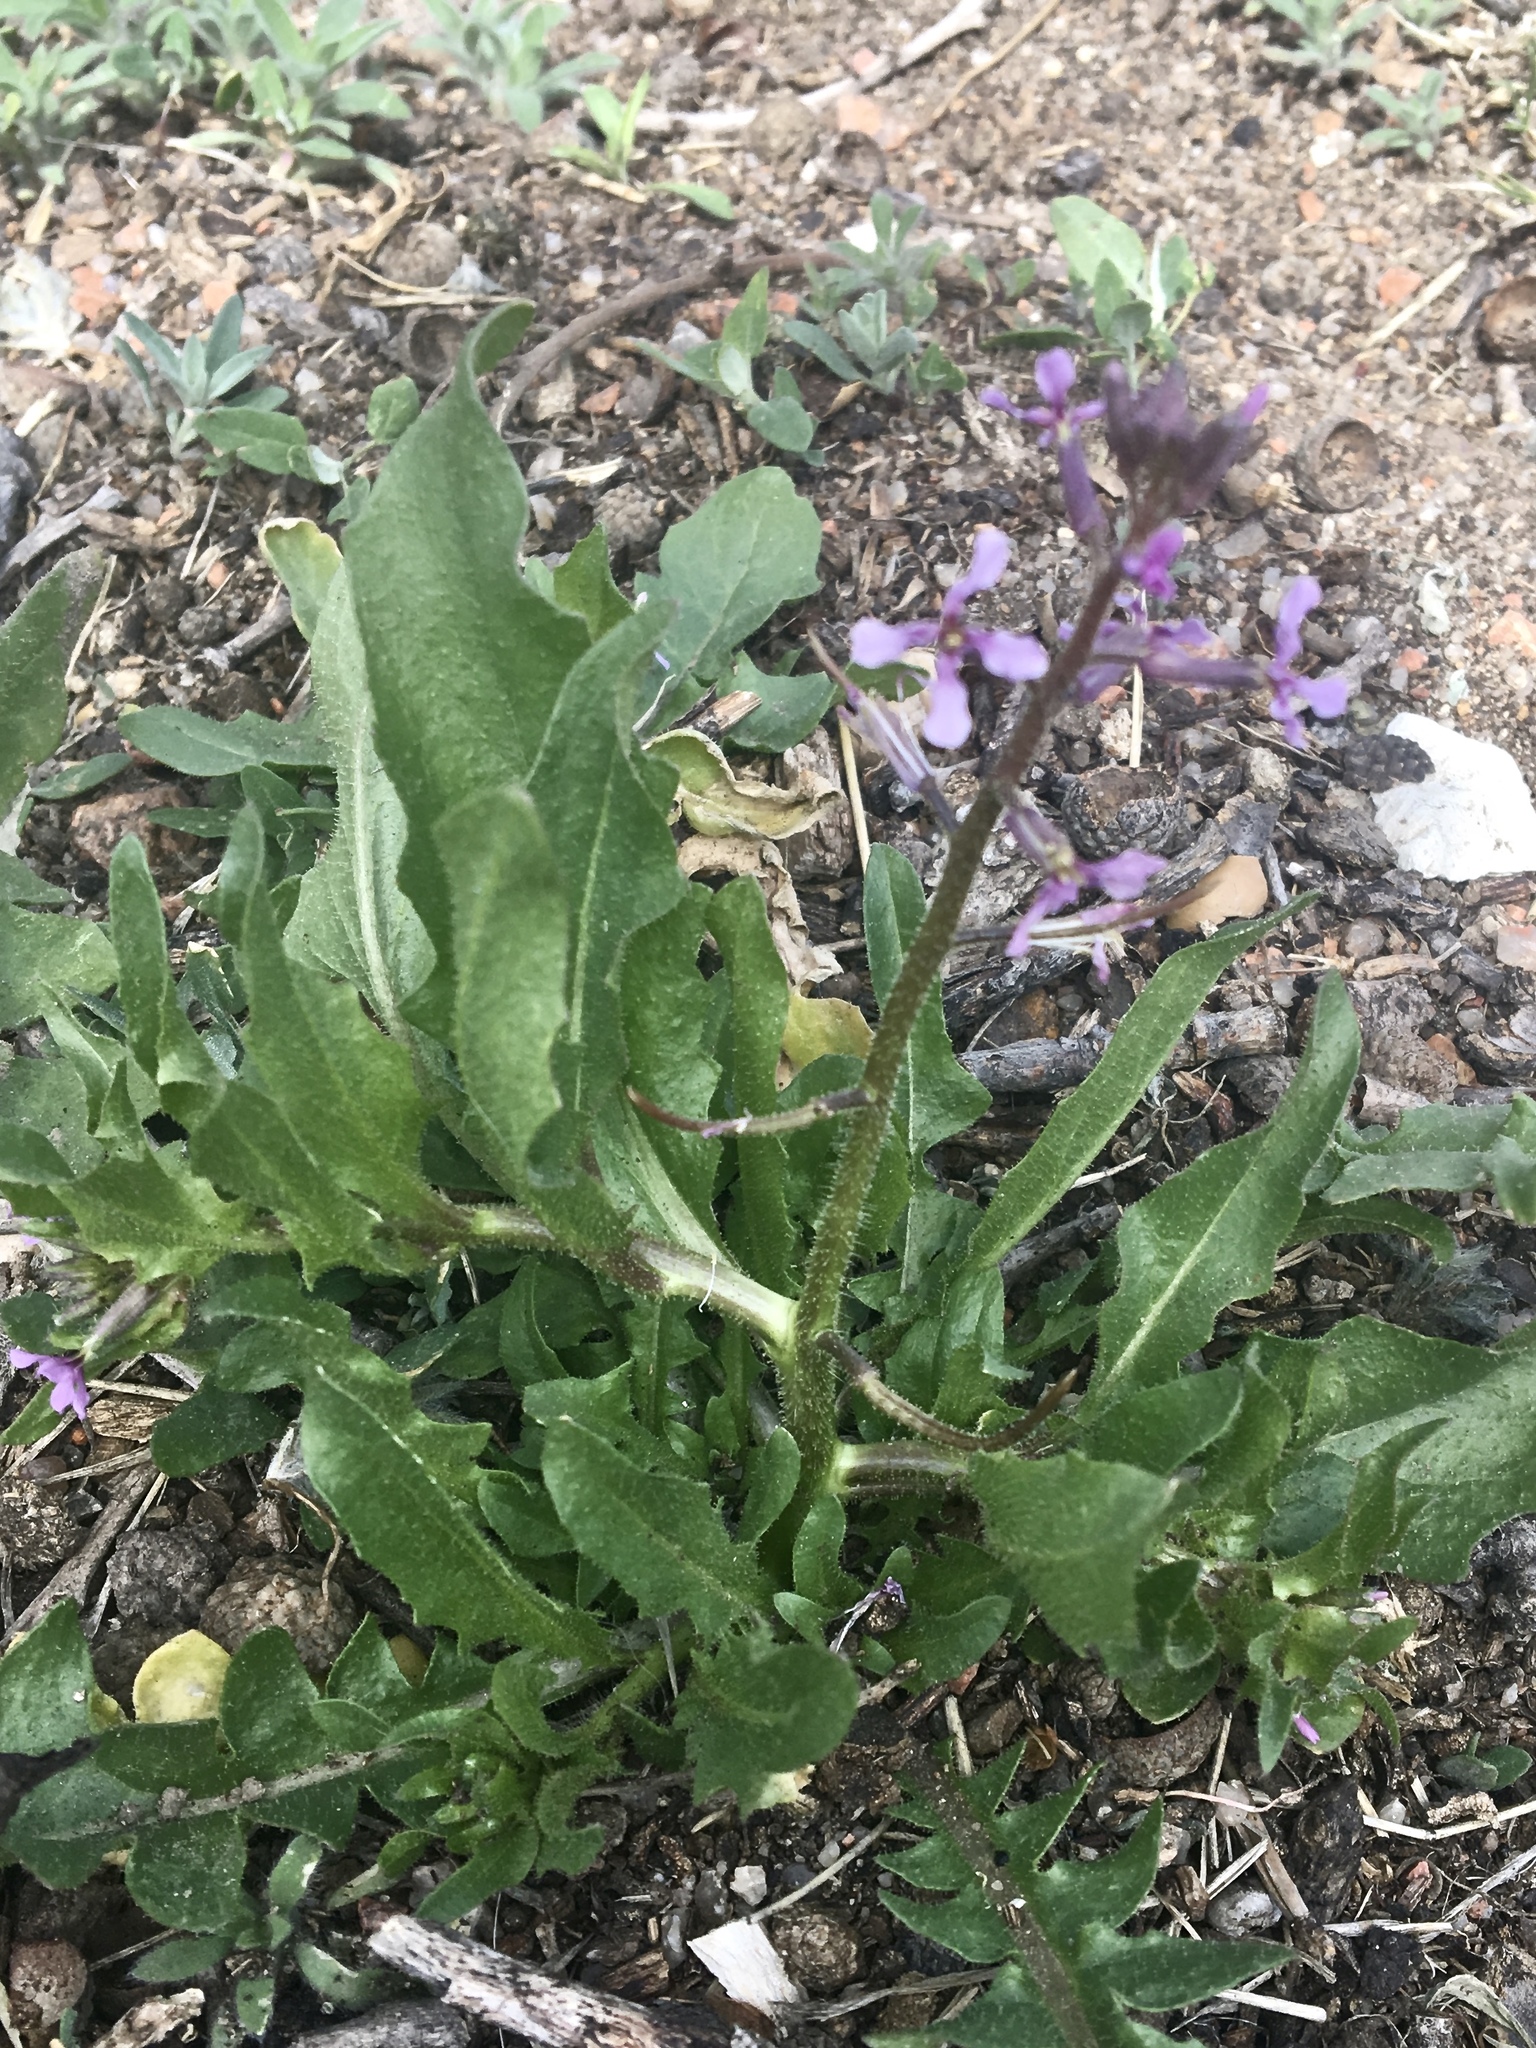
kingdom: Plantae
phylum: Tracheophyta
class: Magnoliopsida
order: Brassicales
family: Brassicaceae
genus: Chorispora
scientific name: Chorispora tenella
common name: Crossflower
